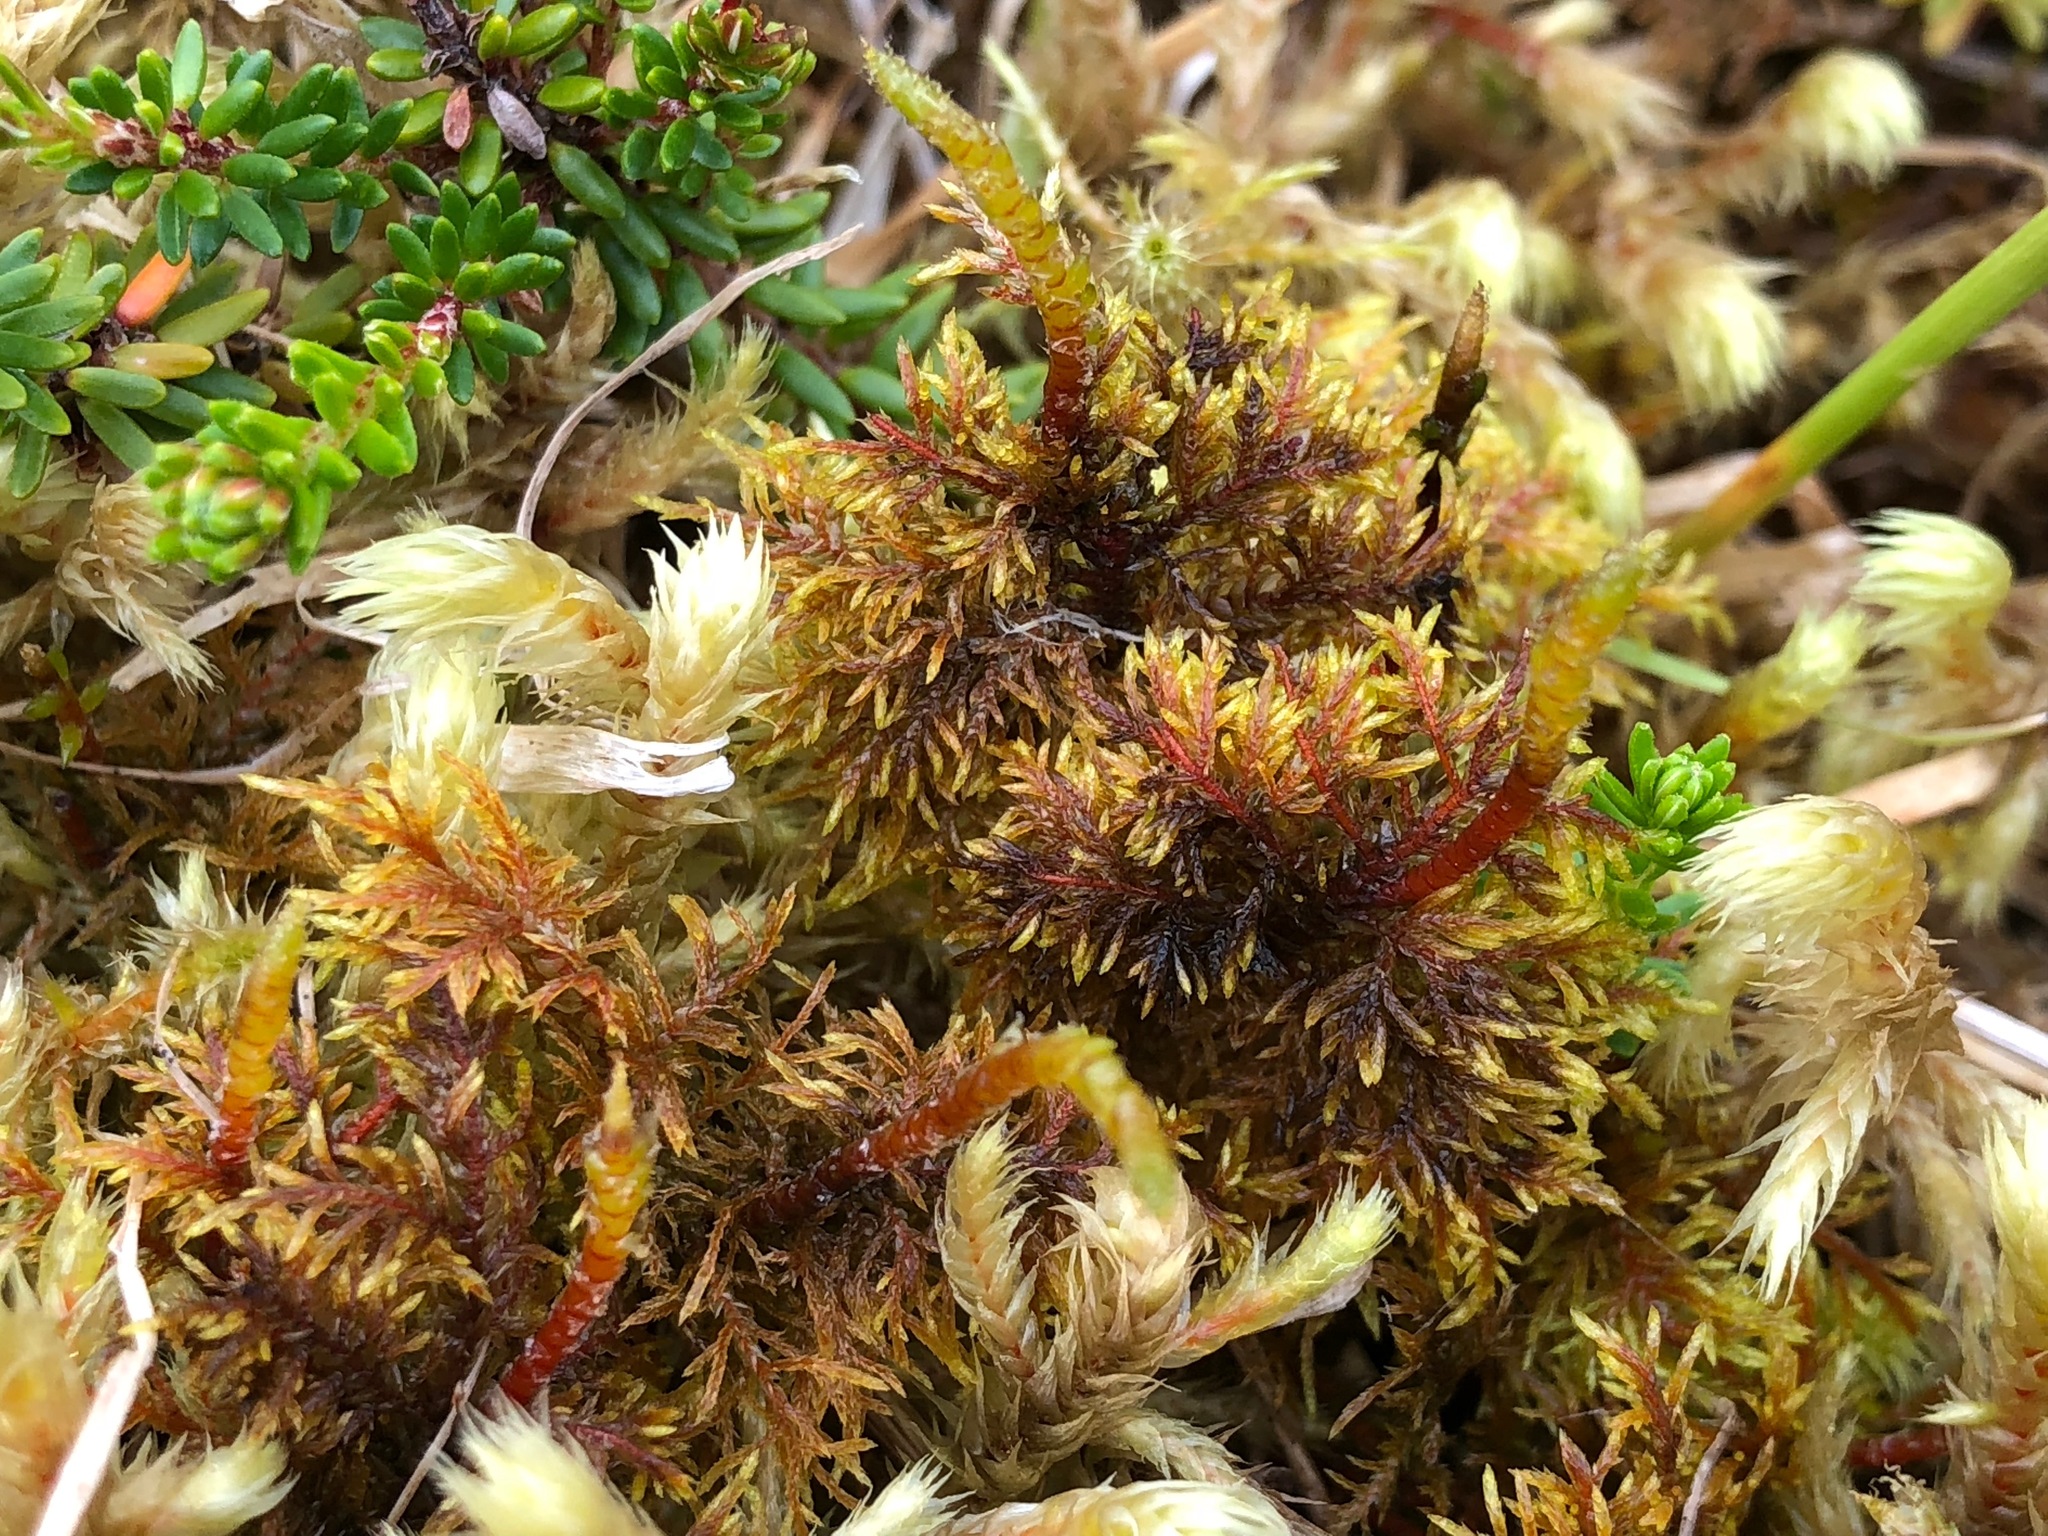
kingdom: Plantae
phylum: Bryophyta
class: Bryopsida
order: Hypnales
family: Hylocomiaceae
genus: Hylocomium
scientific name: Hylocomium splendens
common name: Stairstep moss
